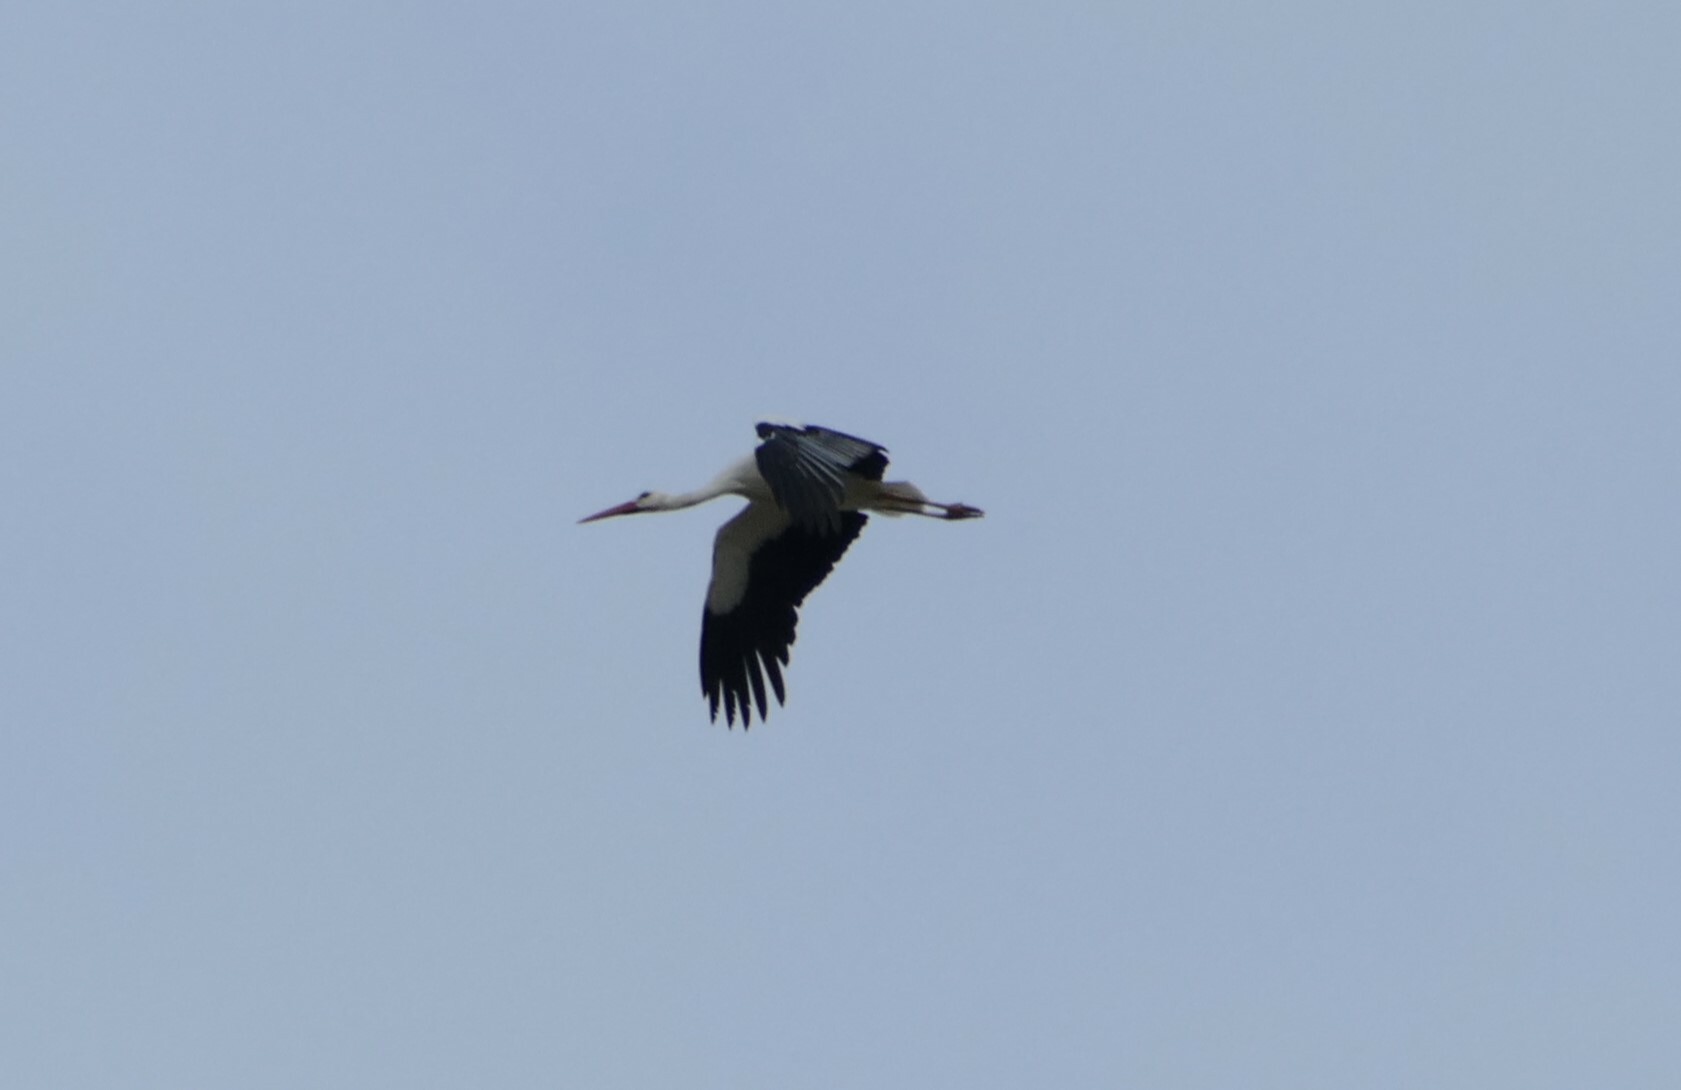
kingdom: Animalia
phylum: Chordata
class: Aves
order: Ciconiiformes
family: Ciconiidae
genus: Ciconia
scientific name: Ciconia ciconia
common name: White stork
